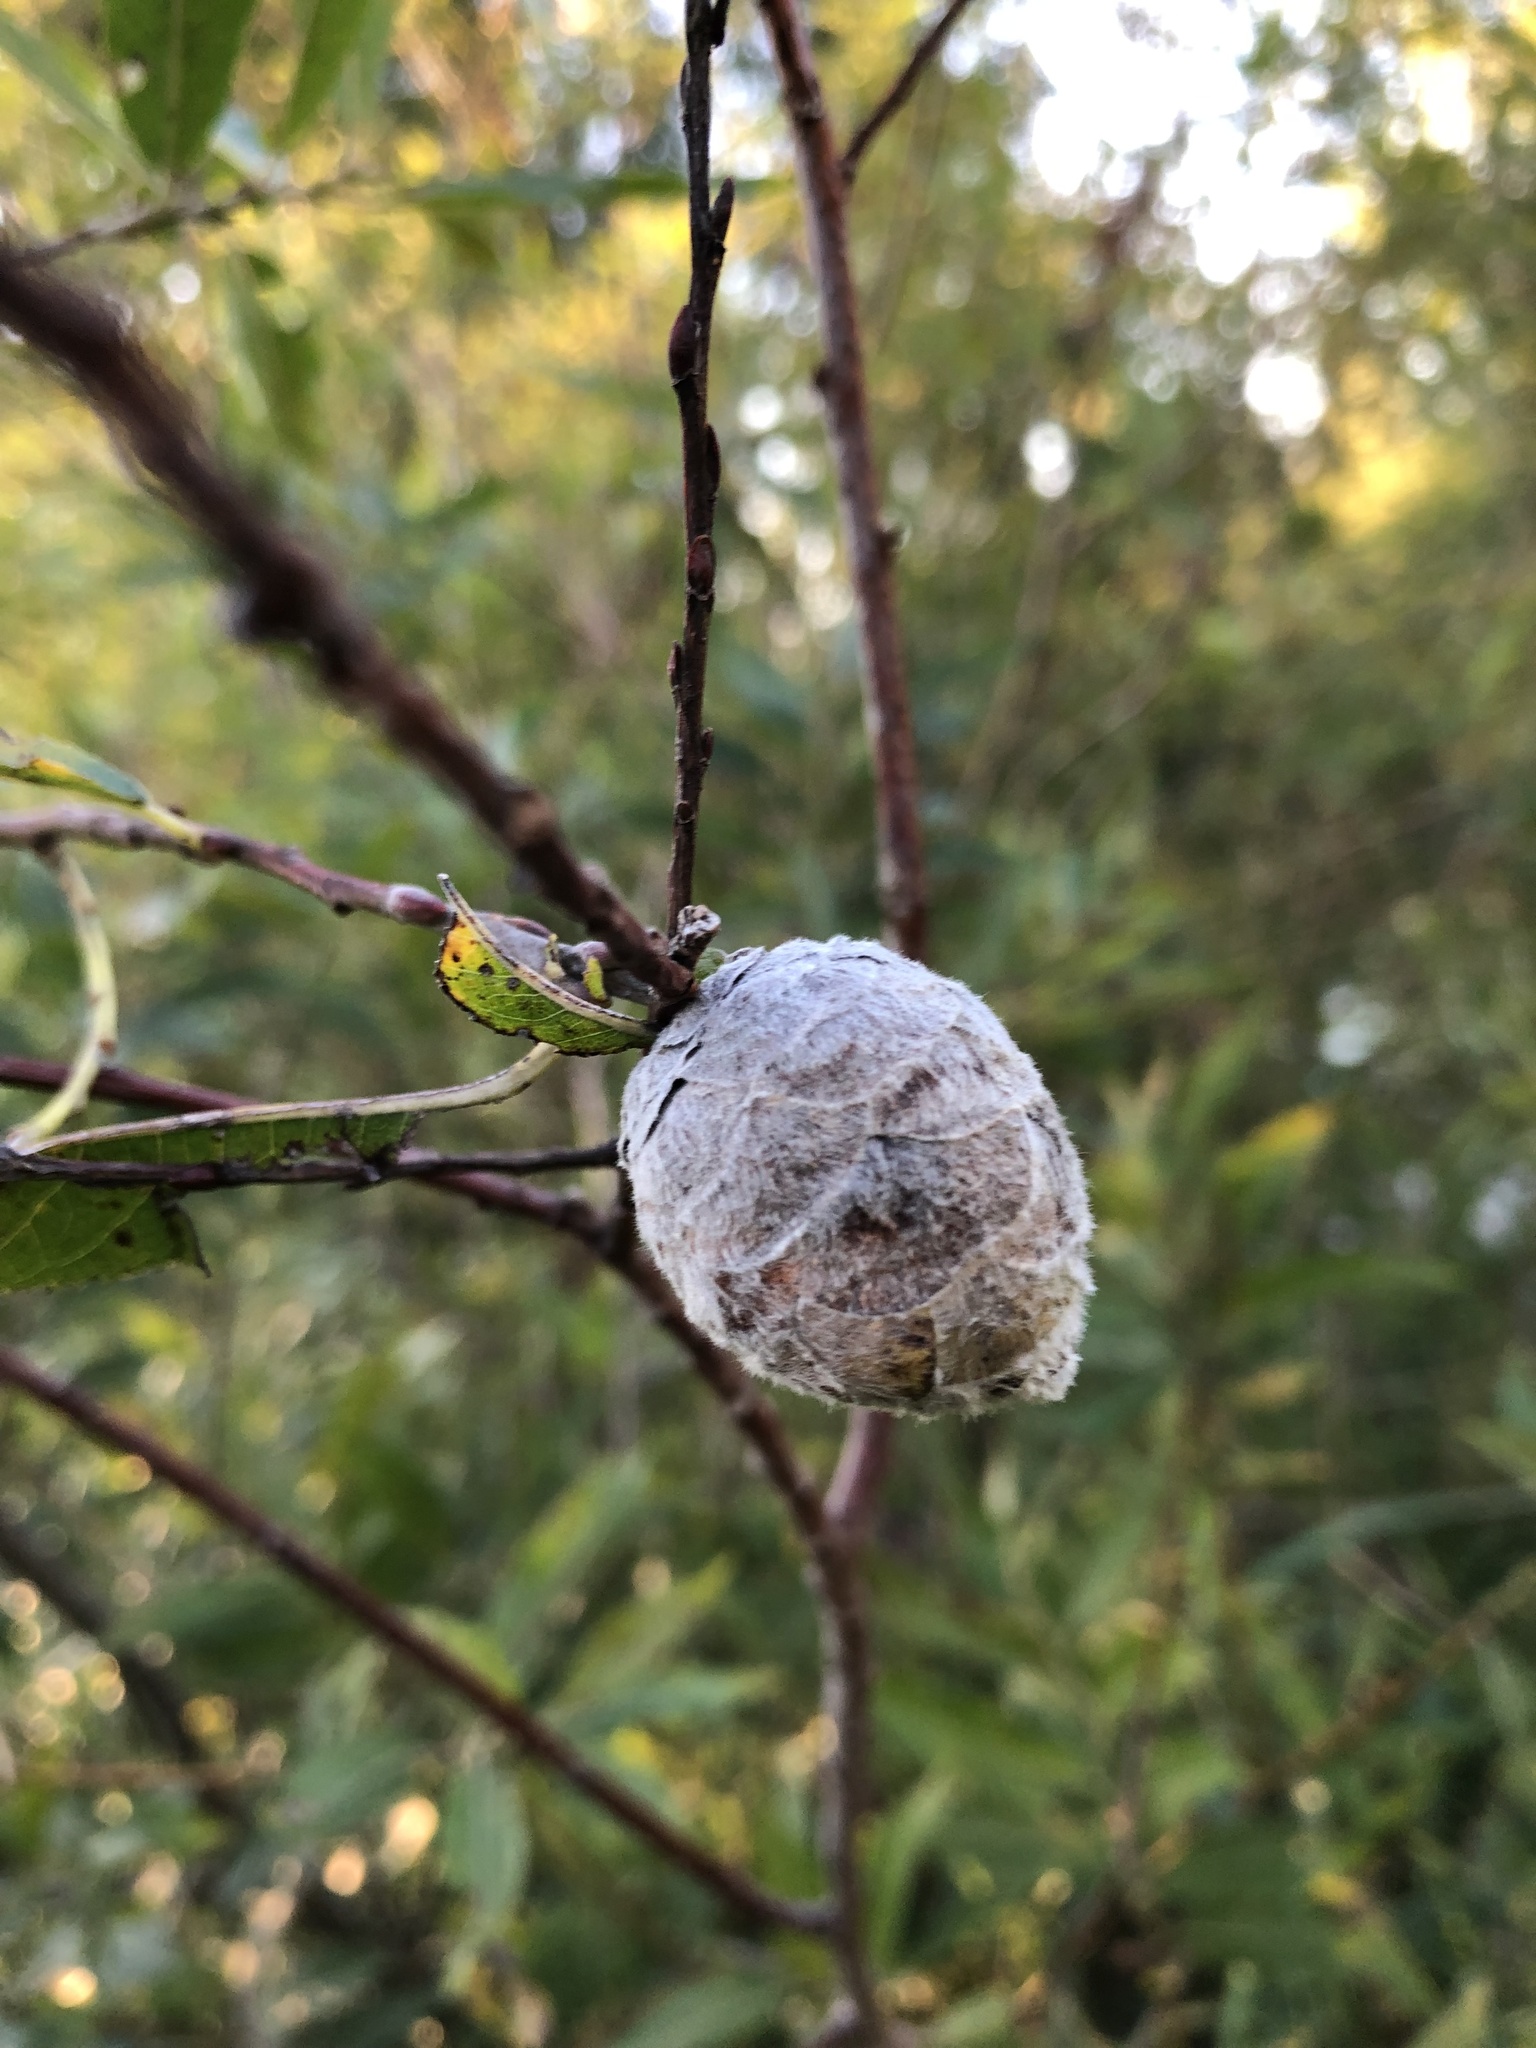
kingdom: Animalia
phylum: Arthropoda
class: Insecta
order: Diptera
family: Cecidomyiidae
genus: Rabdophaga
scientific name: Rabdophaga strobiloides
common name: Willow pinecone gall midge
